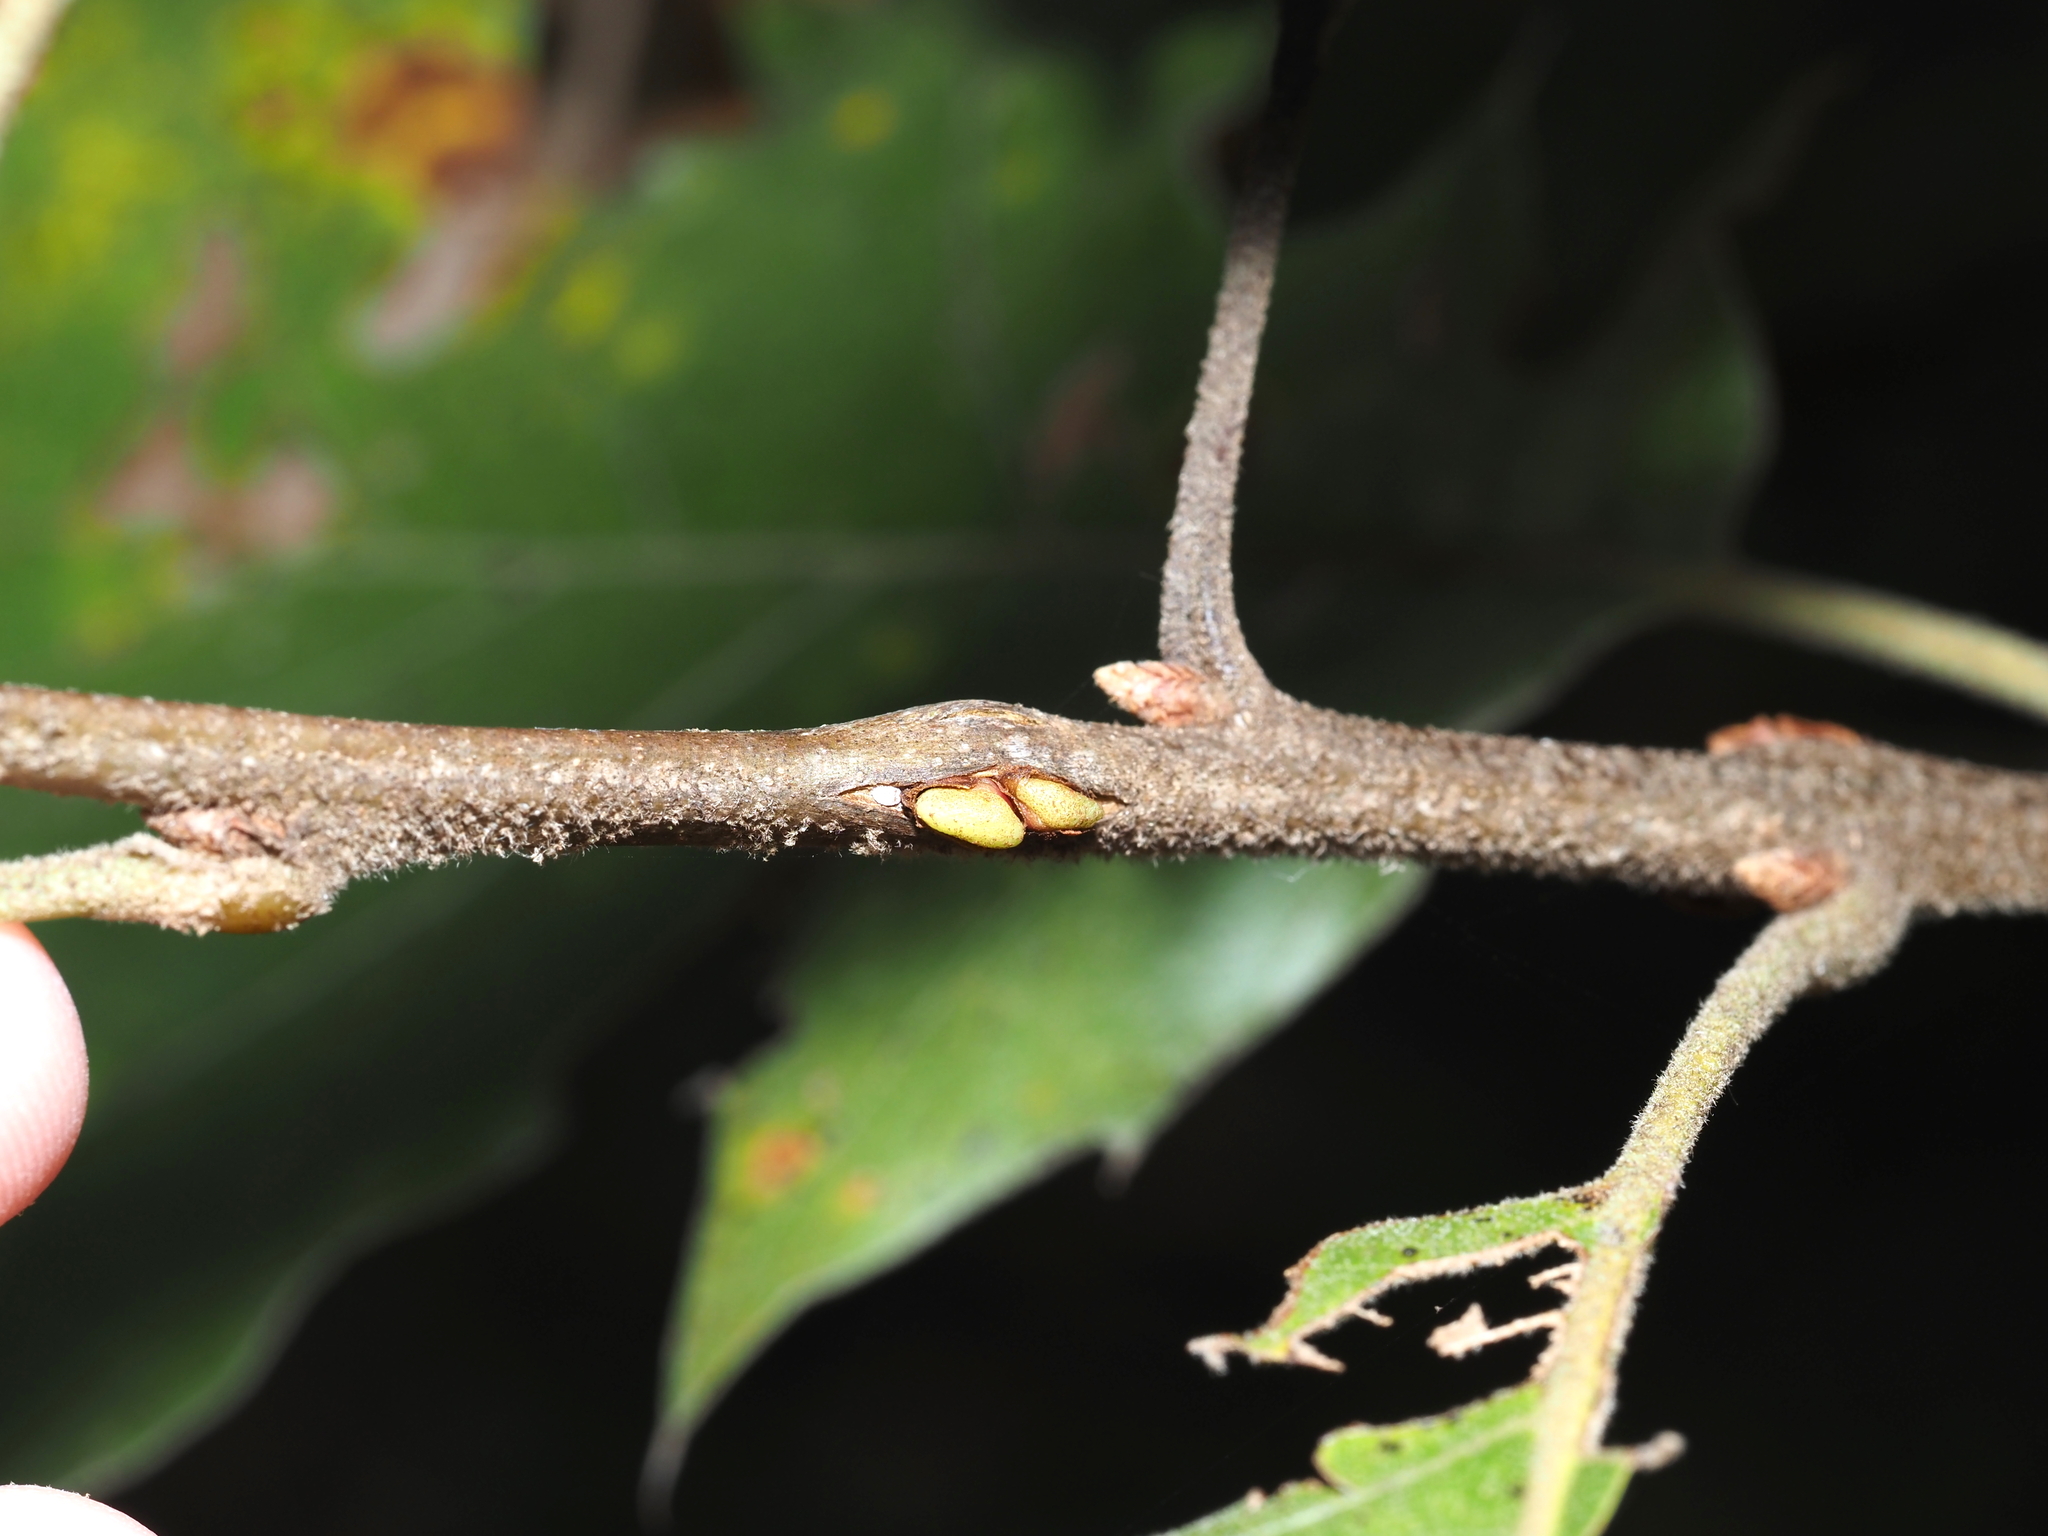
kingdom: Animalia
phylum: Arthropoda
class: Insecta
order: Hymenoptera
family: Cynipidae
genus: Callirhytis
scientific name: Callirhytis
